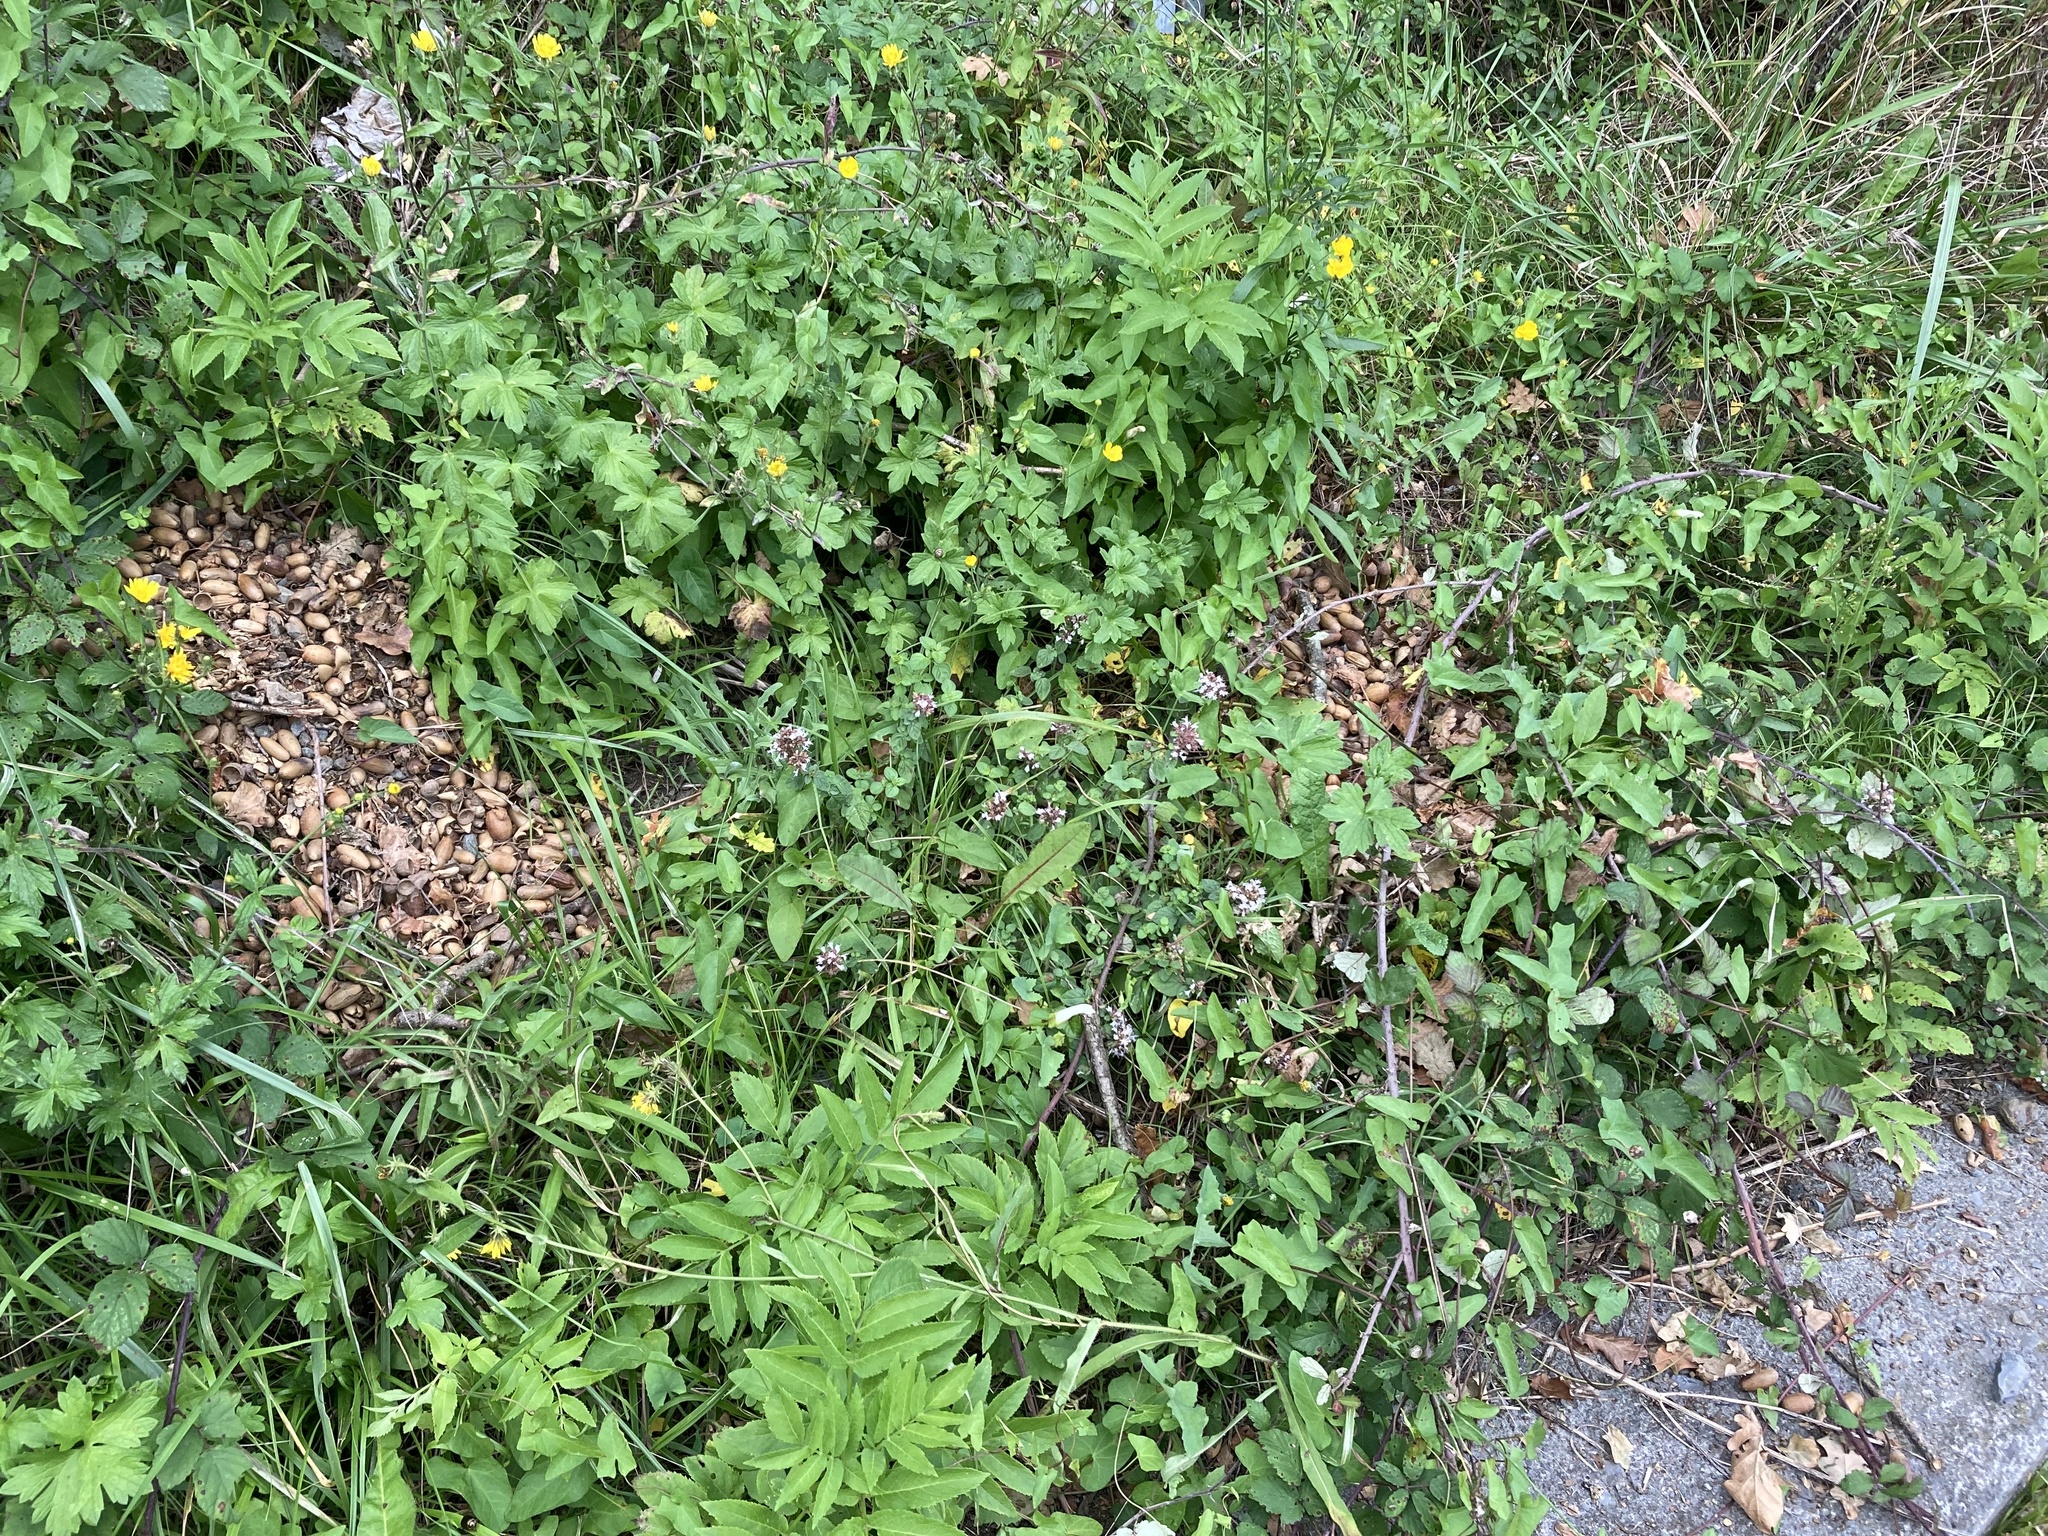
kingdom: Plantae
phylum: Tracheophyta
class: Magnoliopsida
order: Lamiales
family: Lamiaceae
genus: Origanum
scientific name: Origanum vulgare
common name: Wild marjoram
